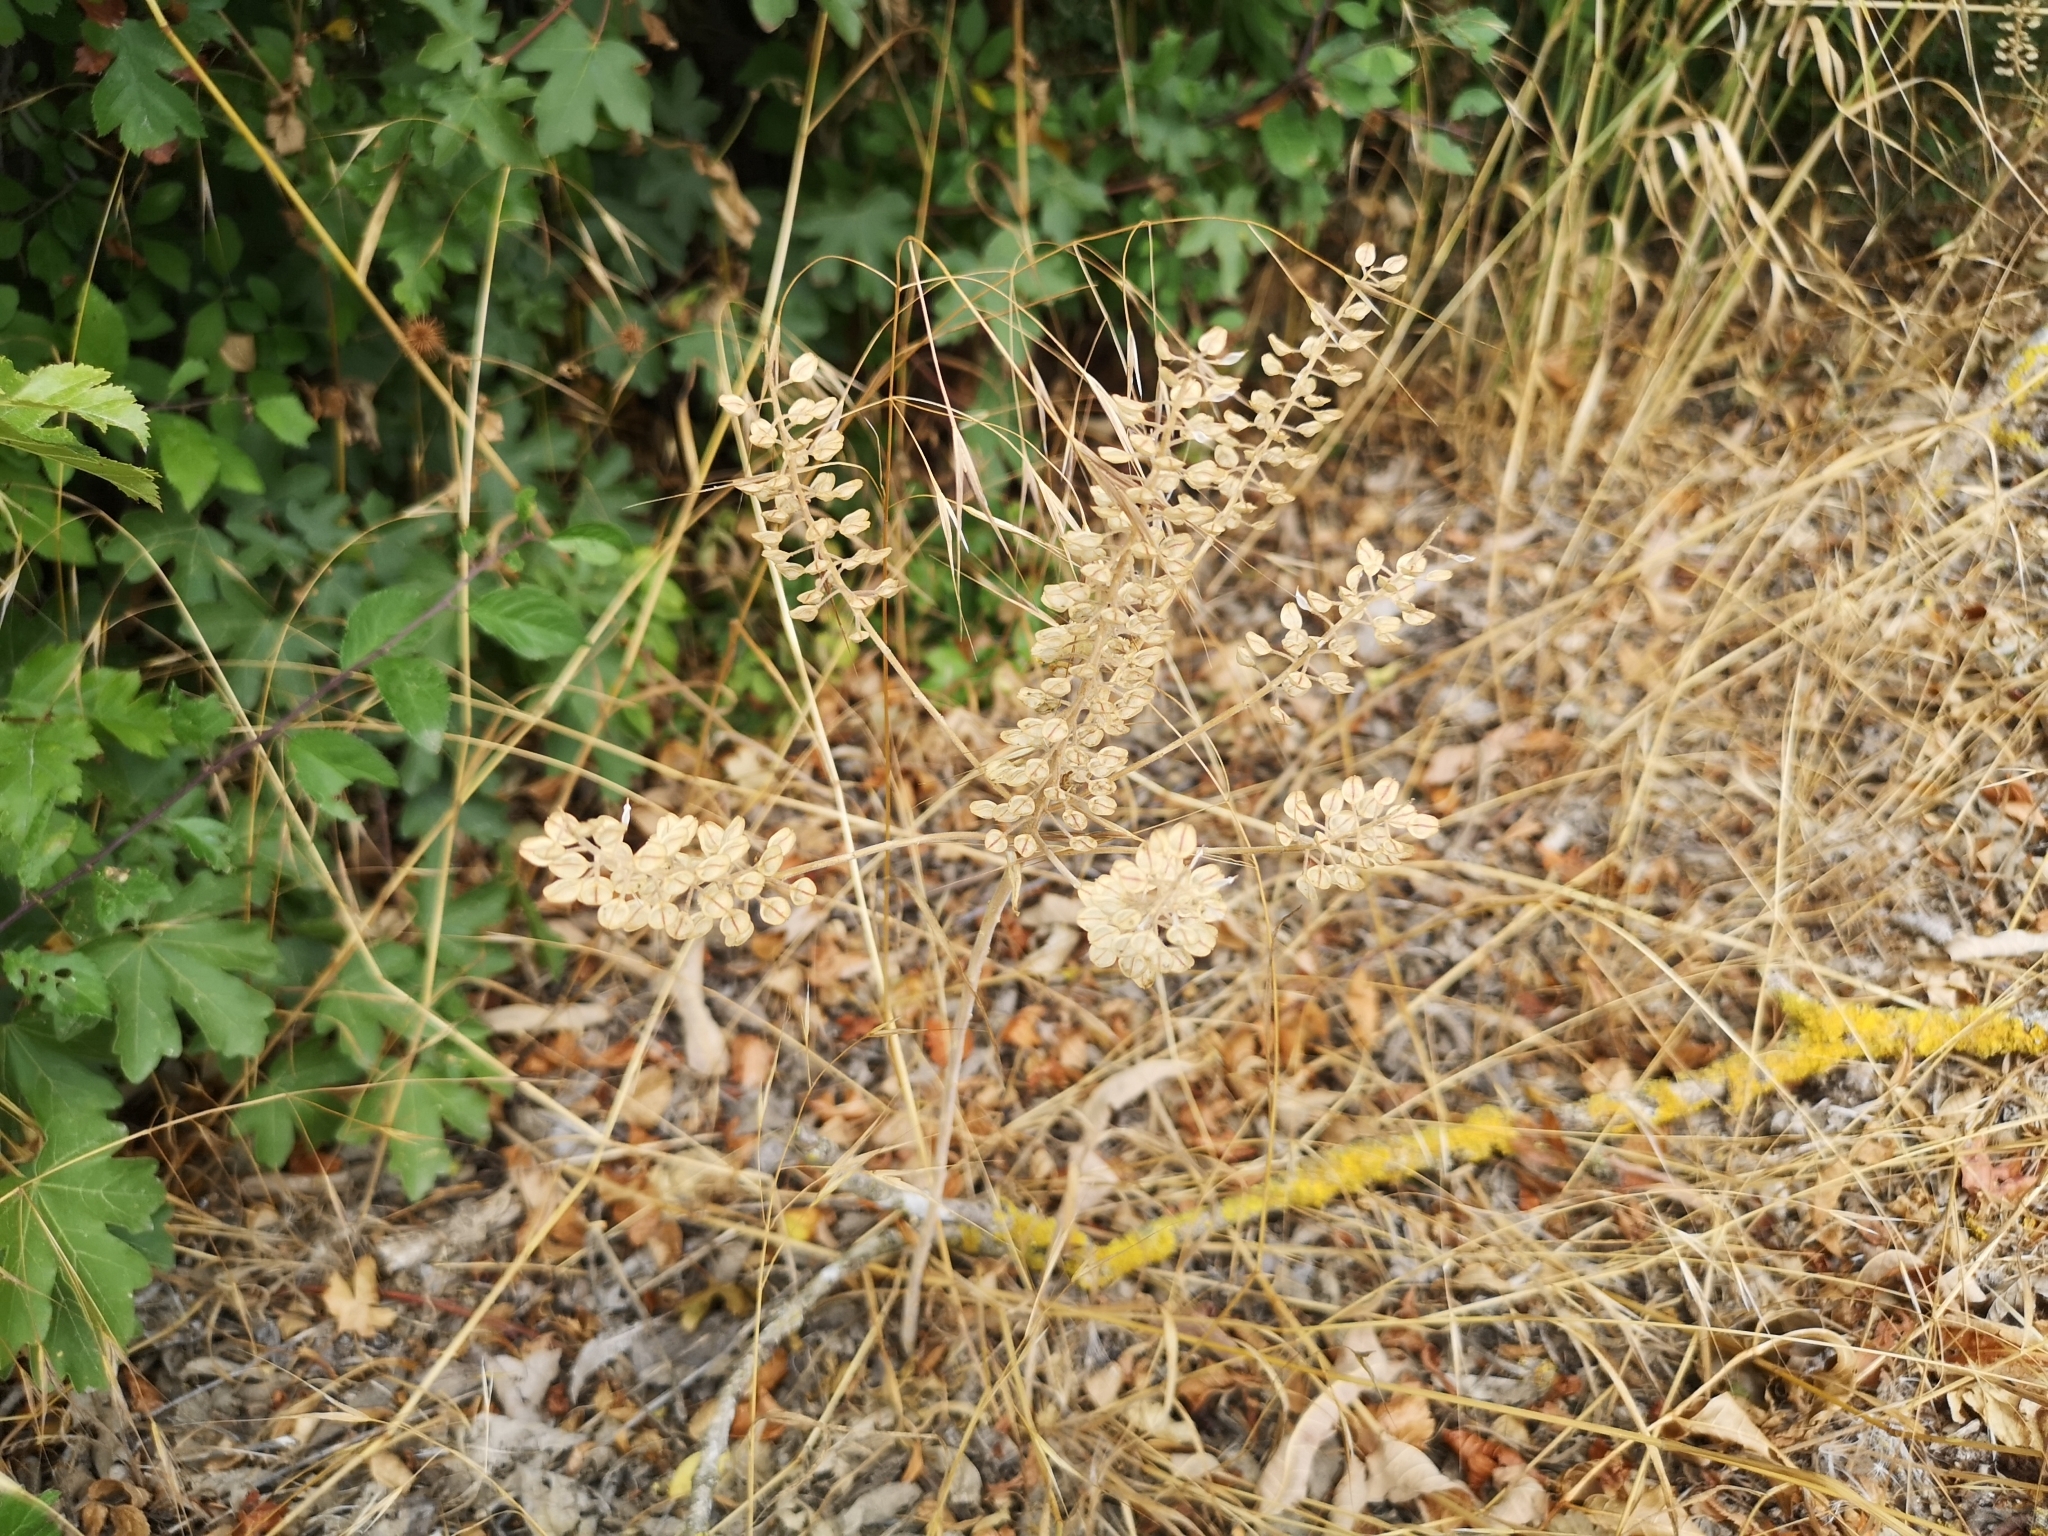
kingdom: Plantae
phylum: Tracheophyta
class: Magnoliopsida
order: Brassicales
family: Brassicaceae
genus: Lepidium
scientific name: Lepidium campestre
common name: Field pepperwort
